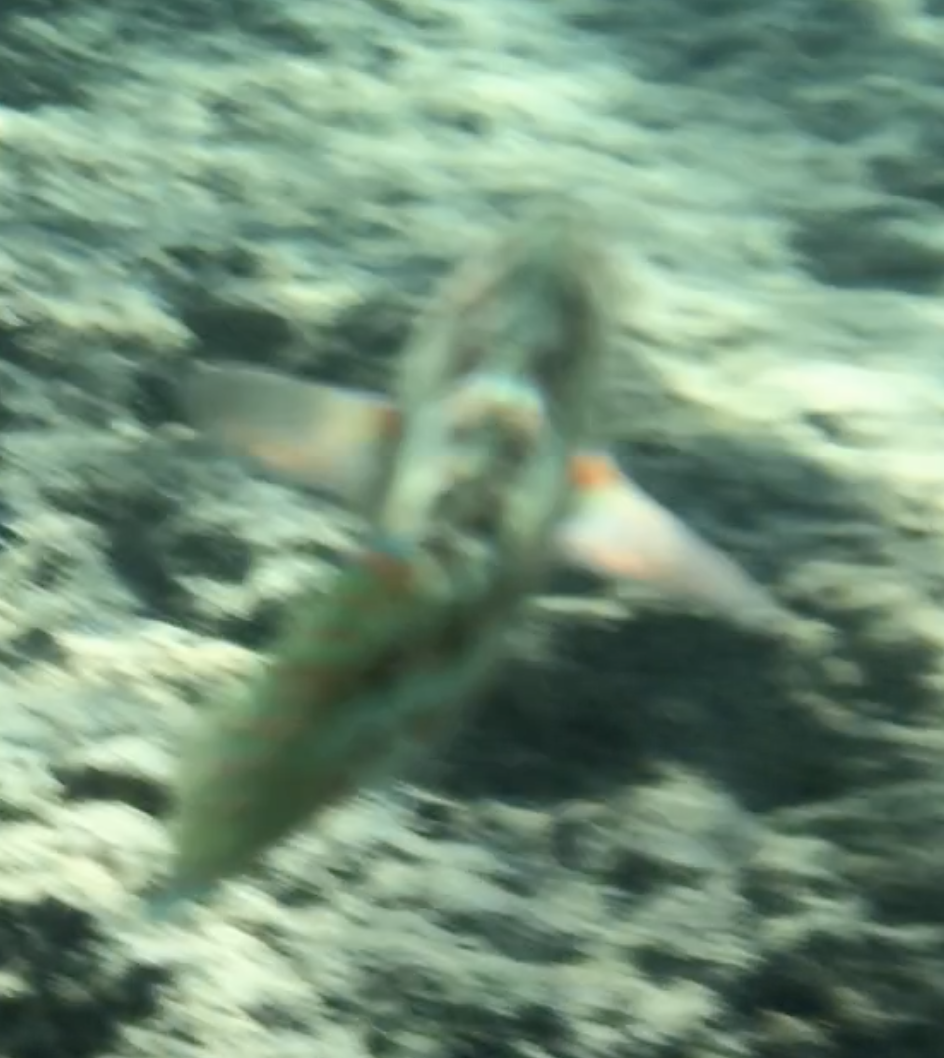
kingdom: Animalia
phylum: Chordata
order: Perciformes
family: Labridae
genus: Thalassoma
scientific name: Thalassoma purpureum
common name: Parrotfish
